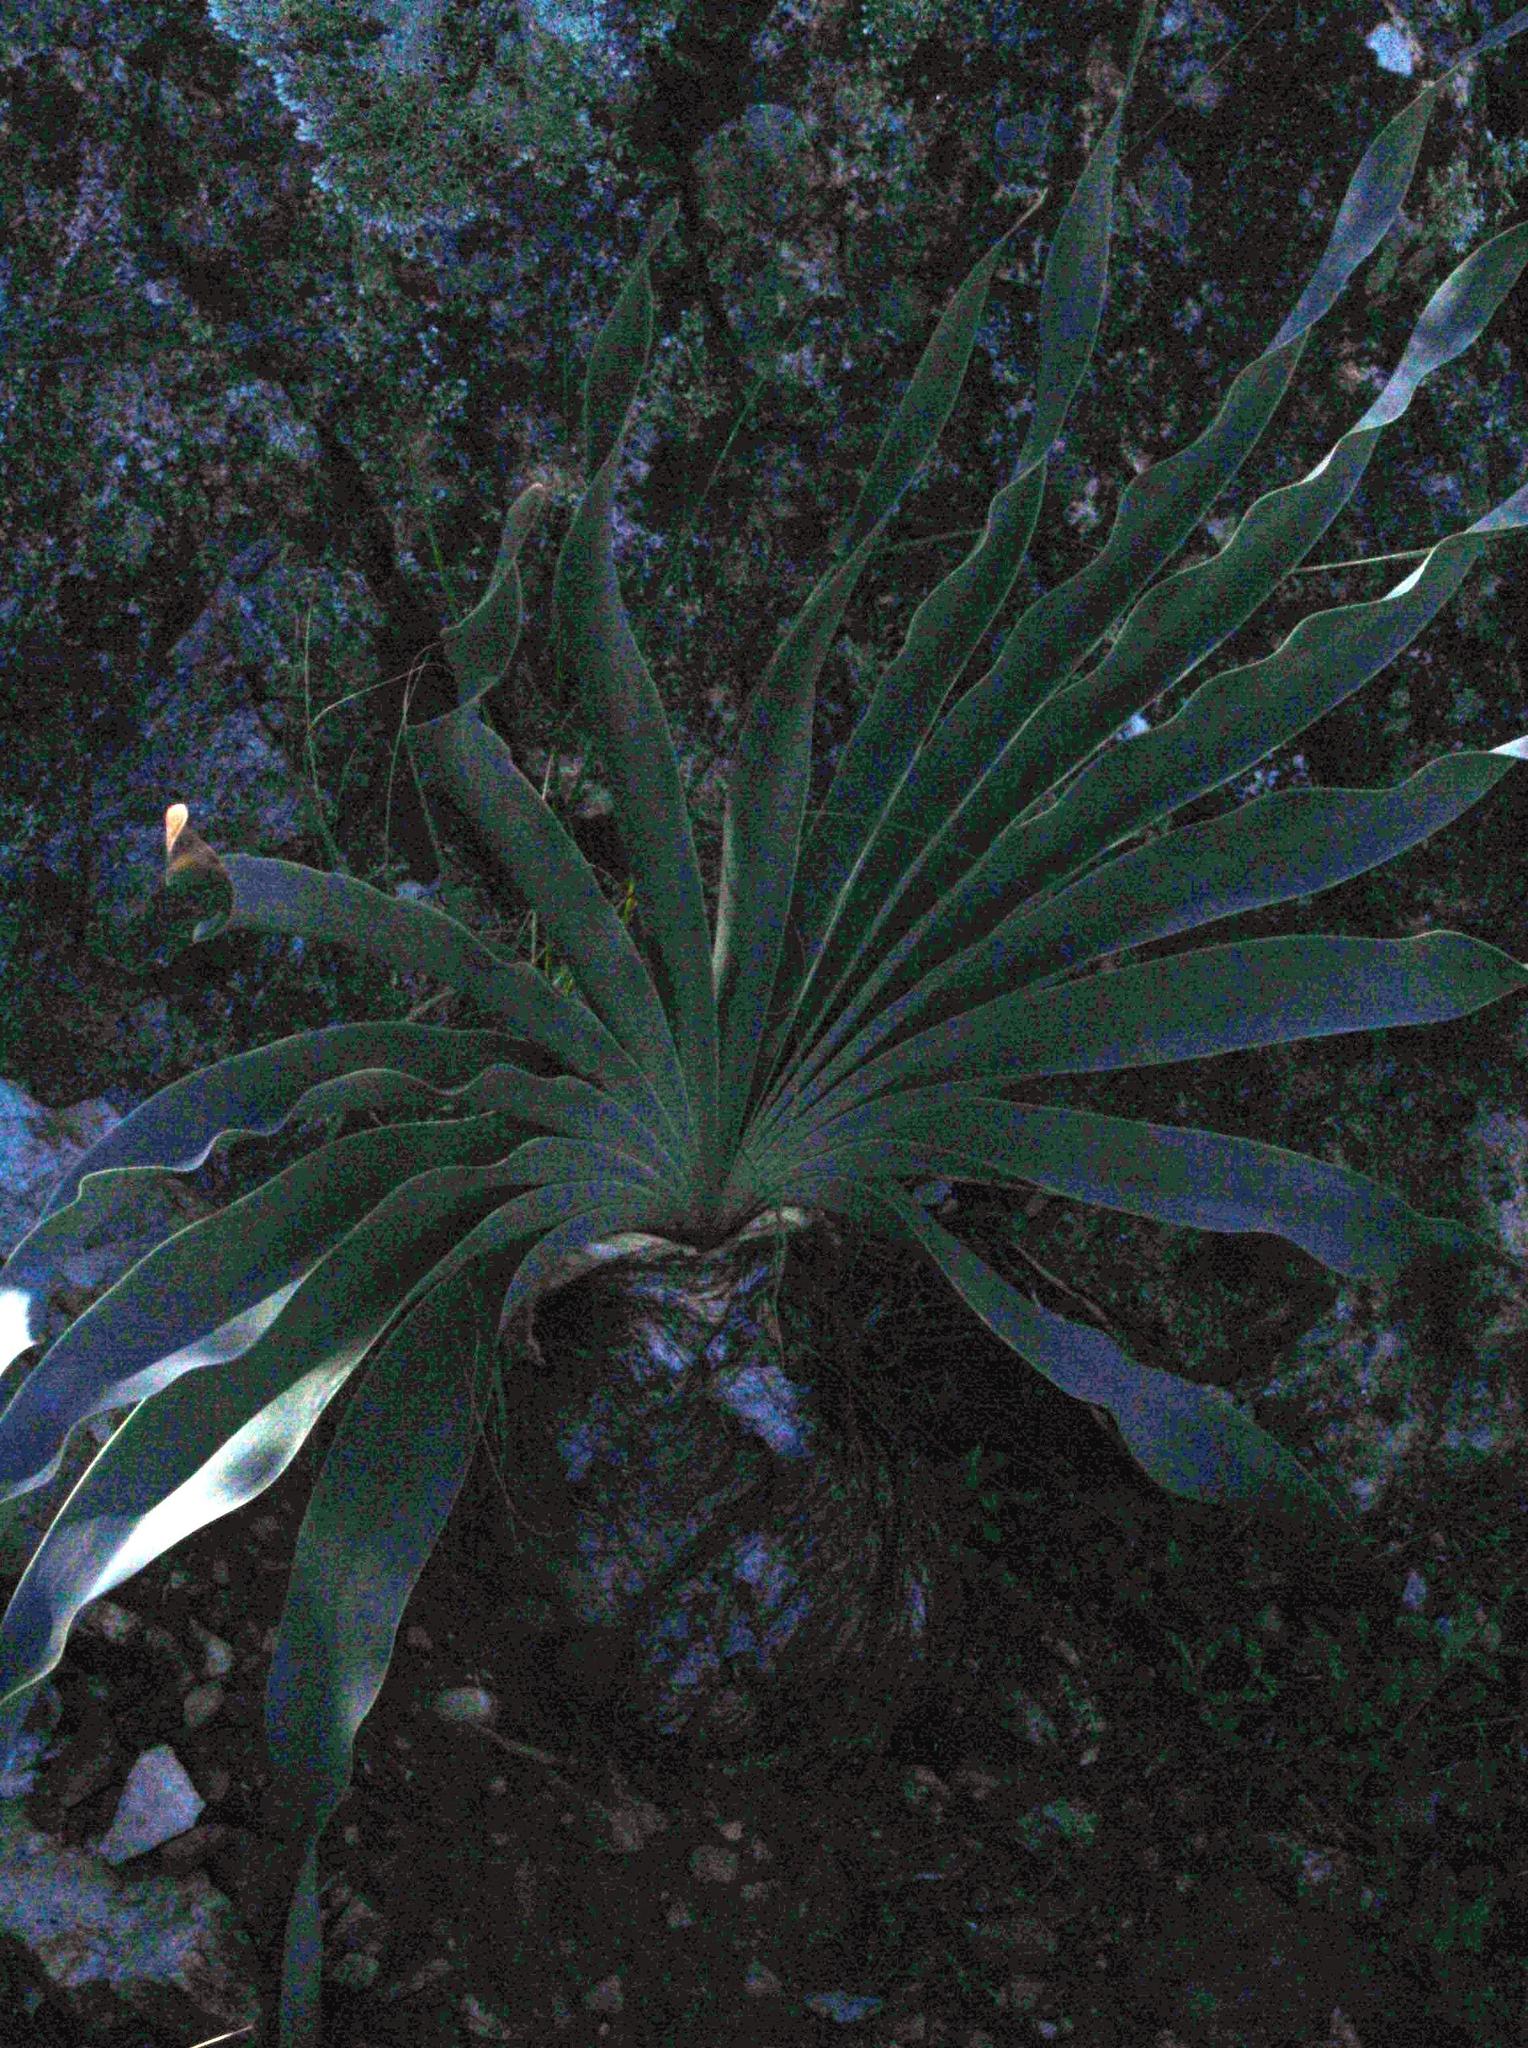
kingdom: Plantae
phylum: Tracheophyta
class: Liliopsida
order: Asparagales
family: Amaryllidaceae
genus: Boophone
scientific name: Boophone disticha
